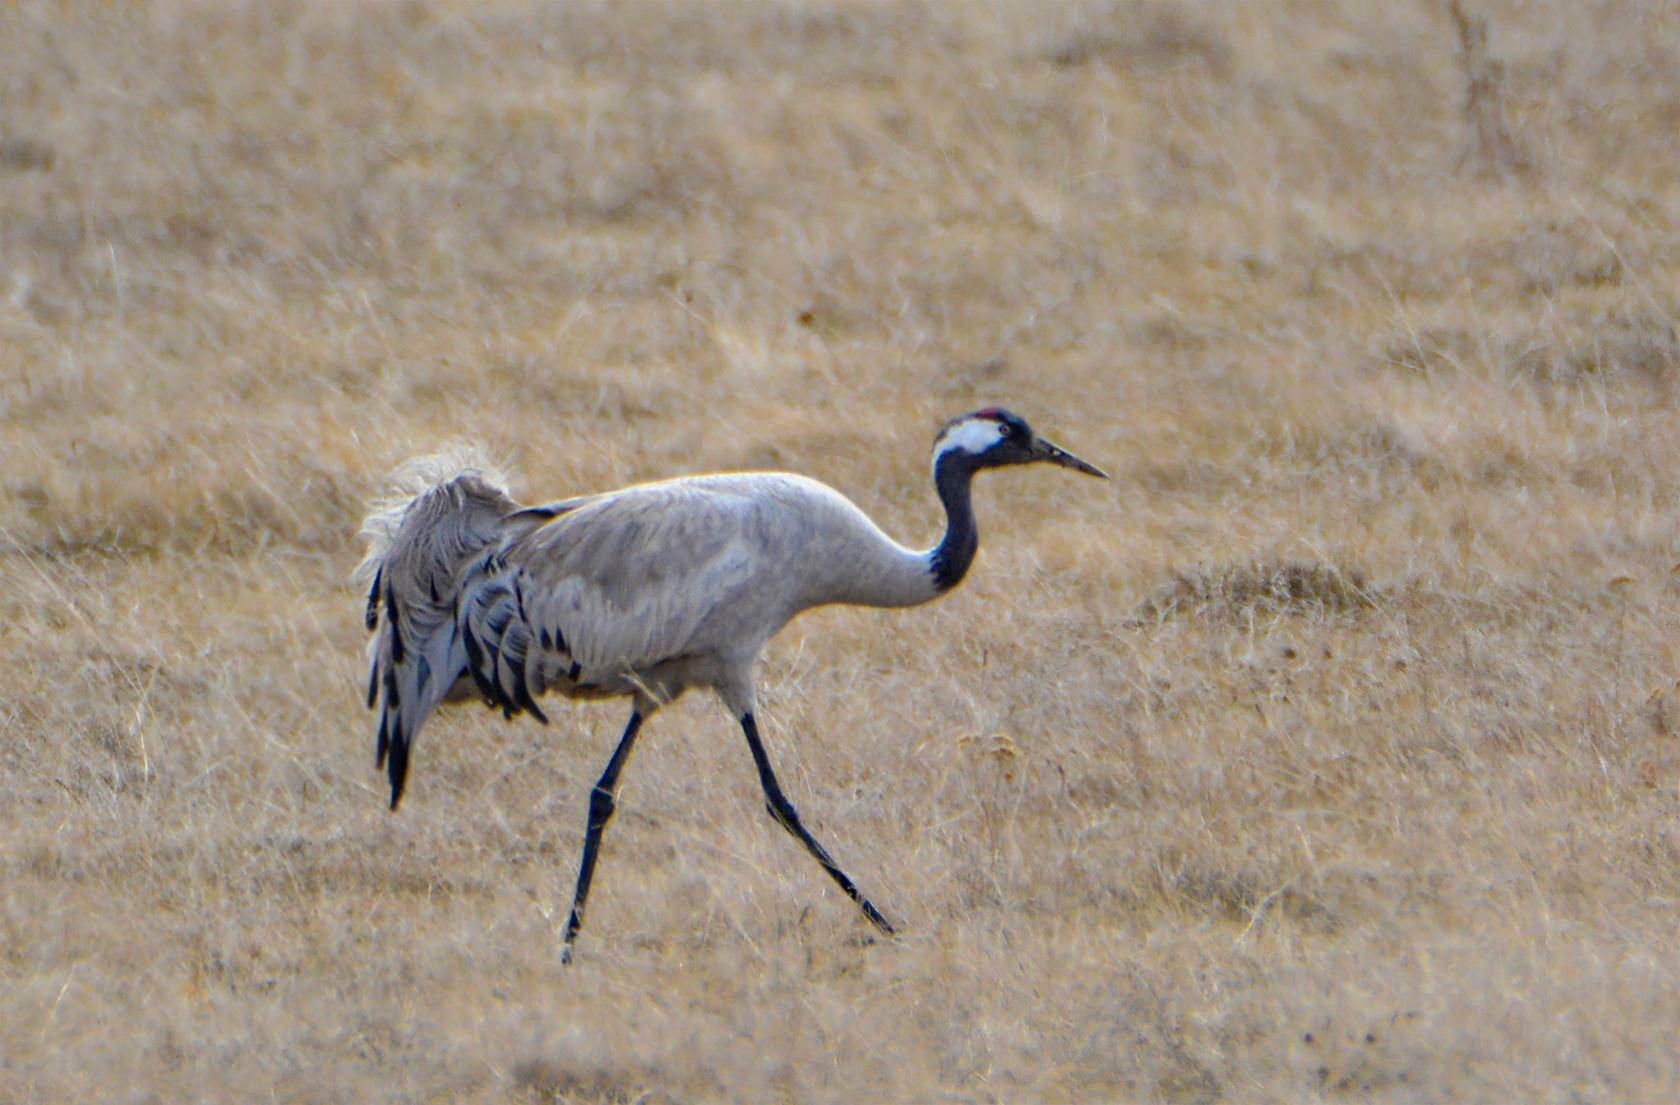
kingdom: Animalia
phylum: Chordata
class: Aves
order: Gruiformes
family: Gruidae
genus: Grus
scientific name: Grus grus
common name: Common crane
